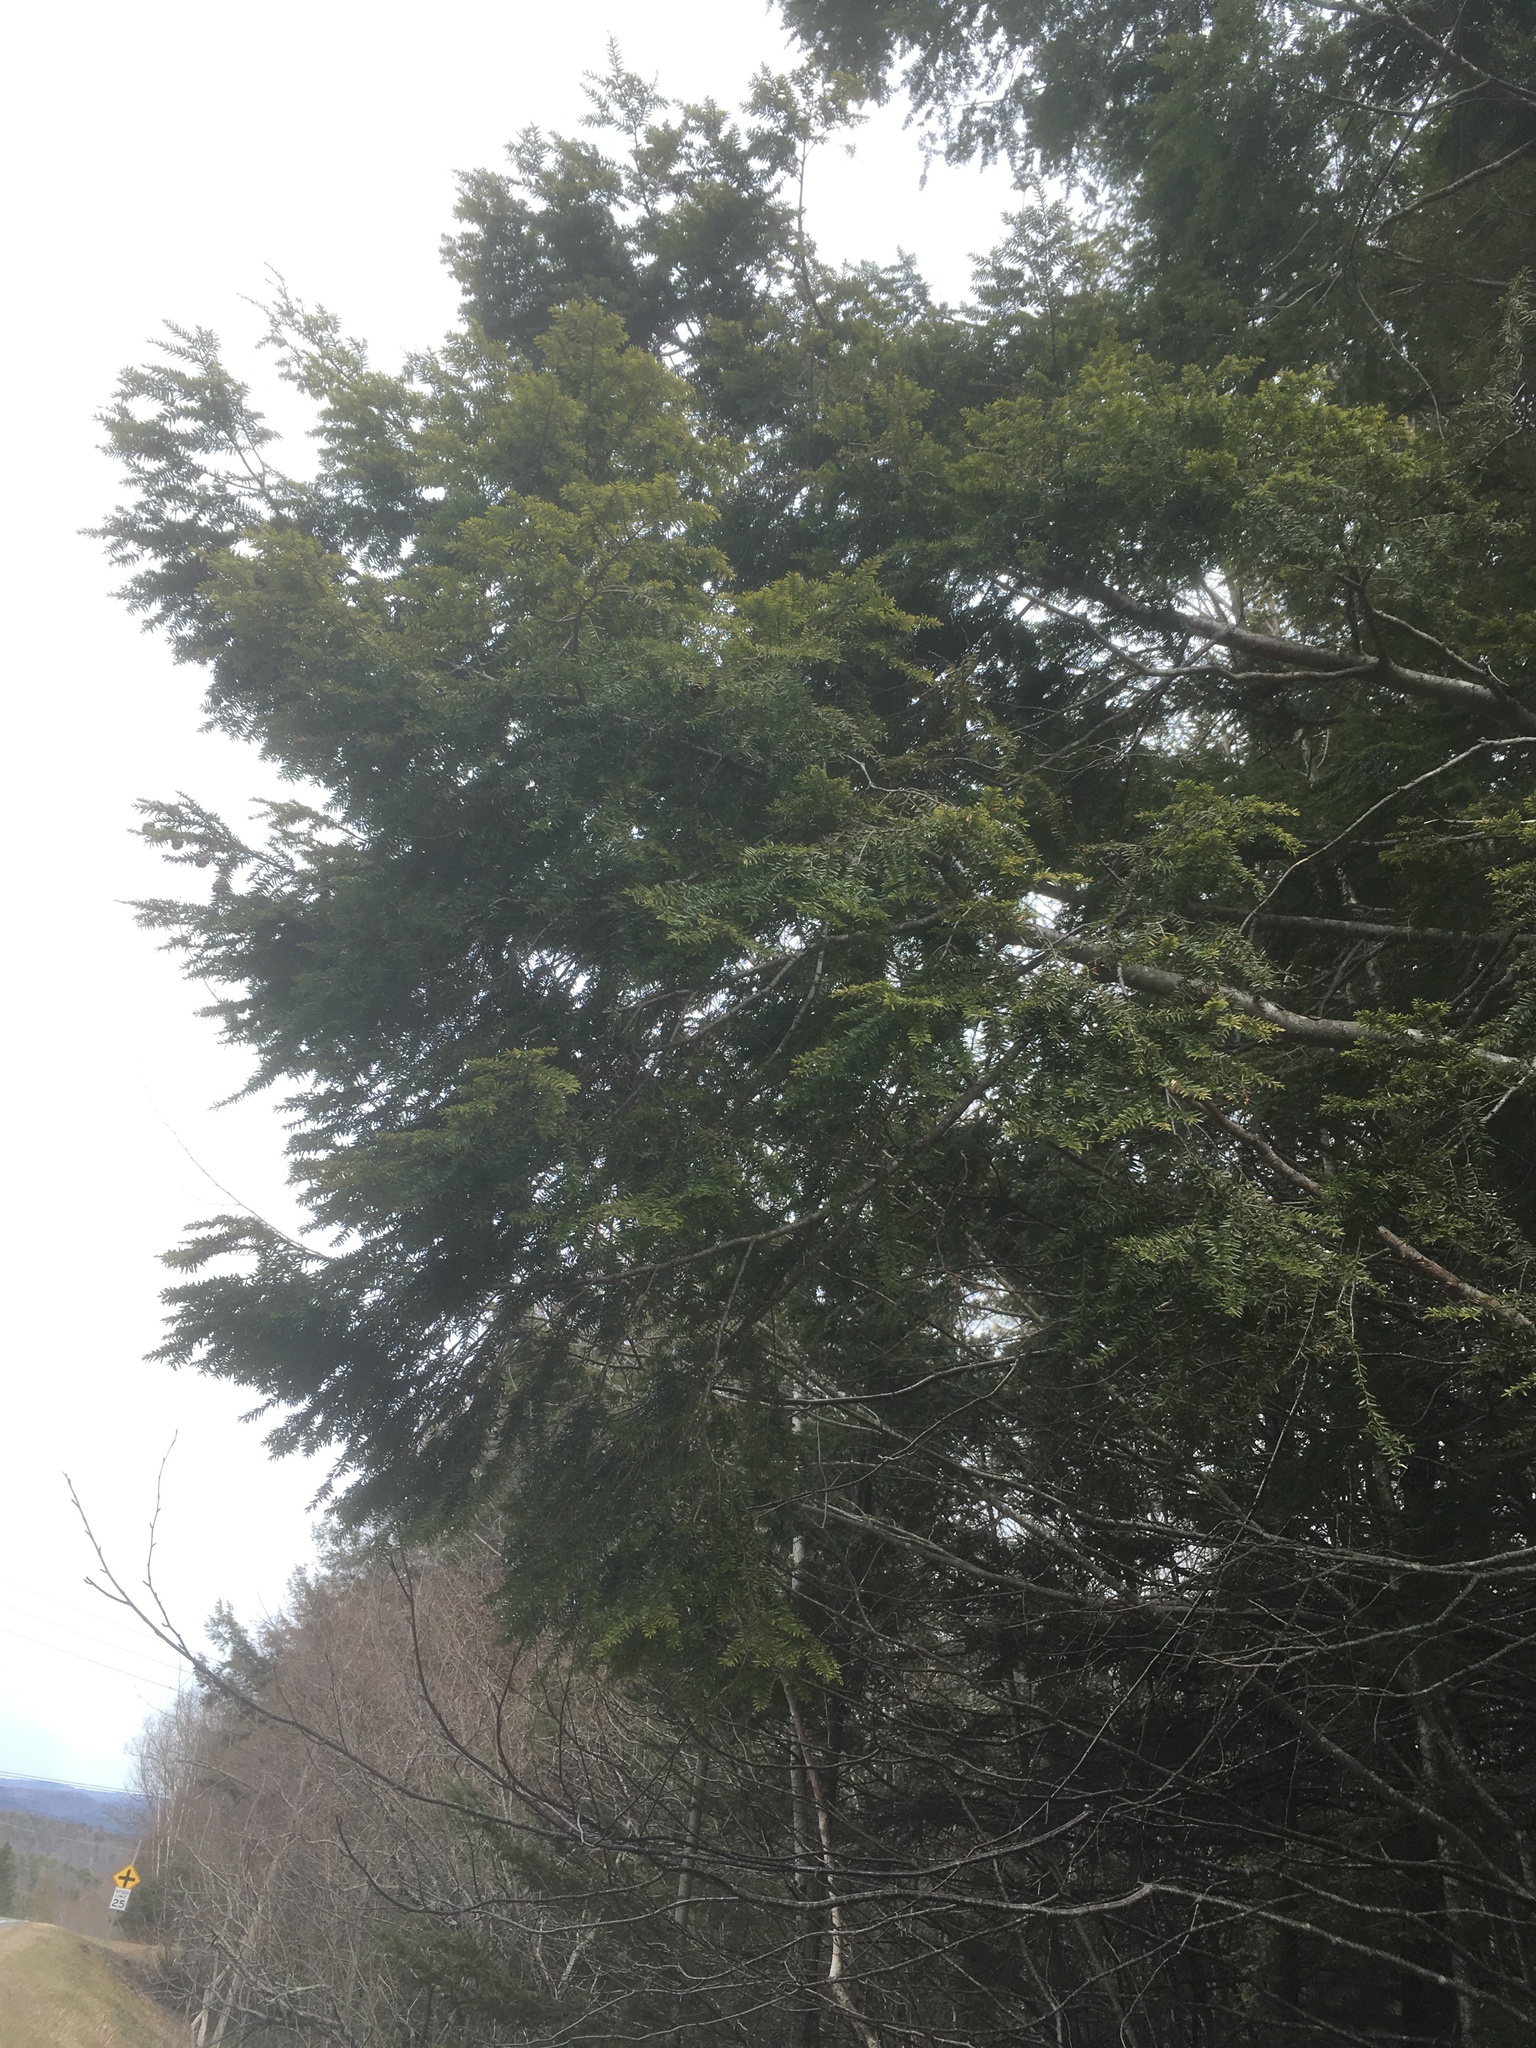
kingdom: Plantae
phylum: Tracheophyta
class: Pinopsida
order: Pinales
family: Pinaceae
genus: Tsuga
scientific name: Tsuga canadensis
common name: Eastern hemlock
